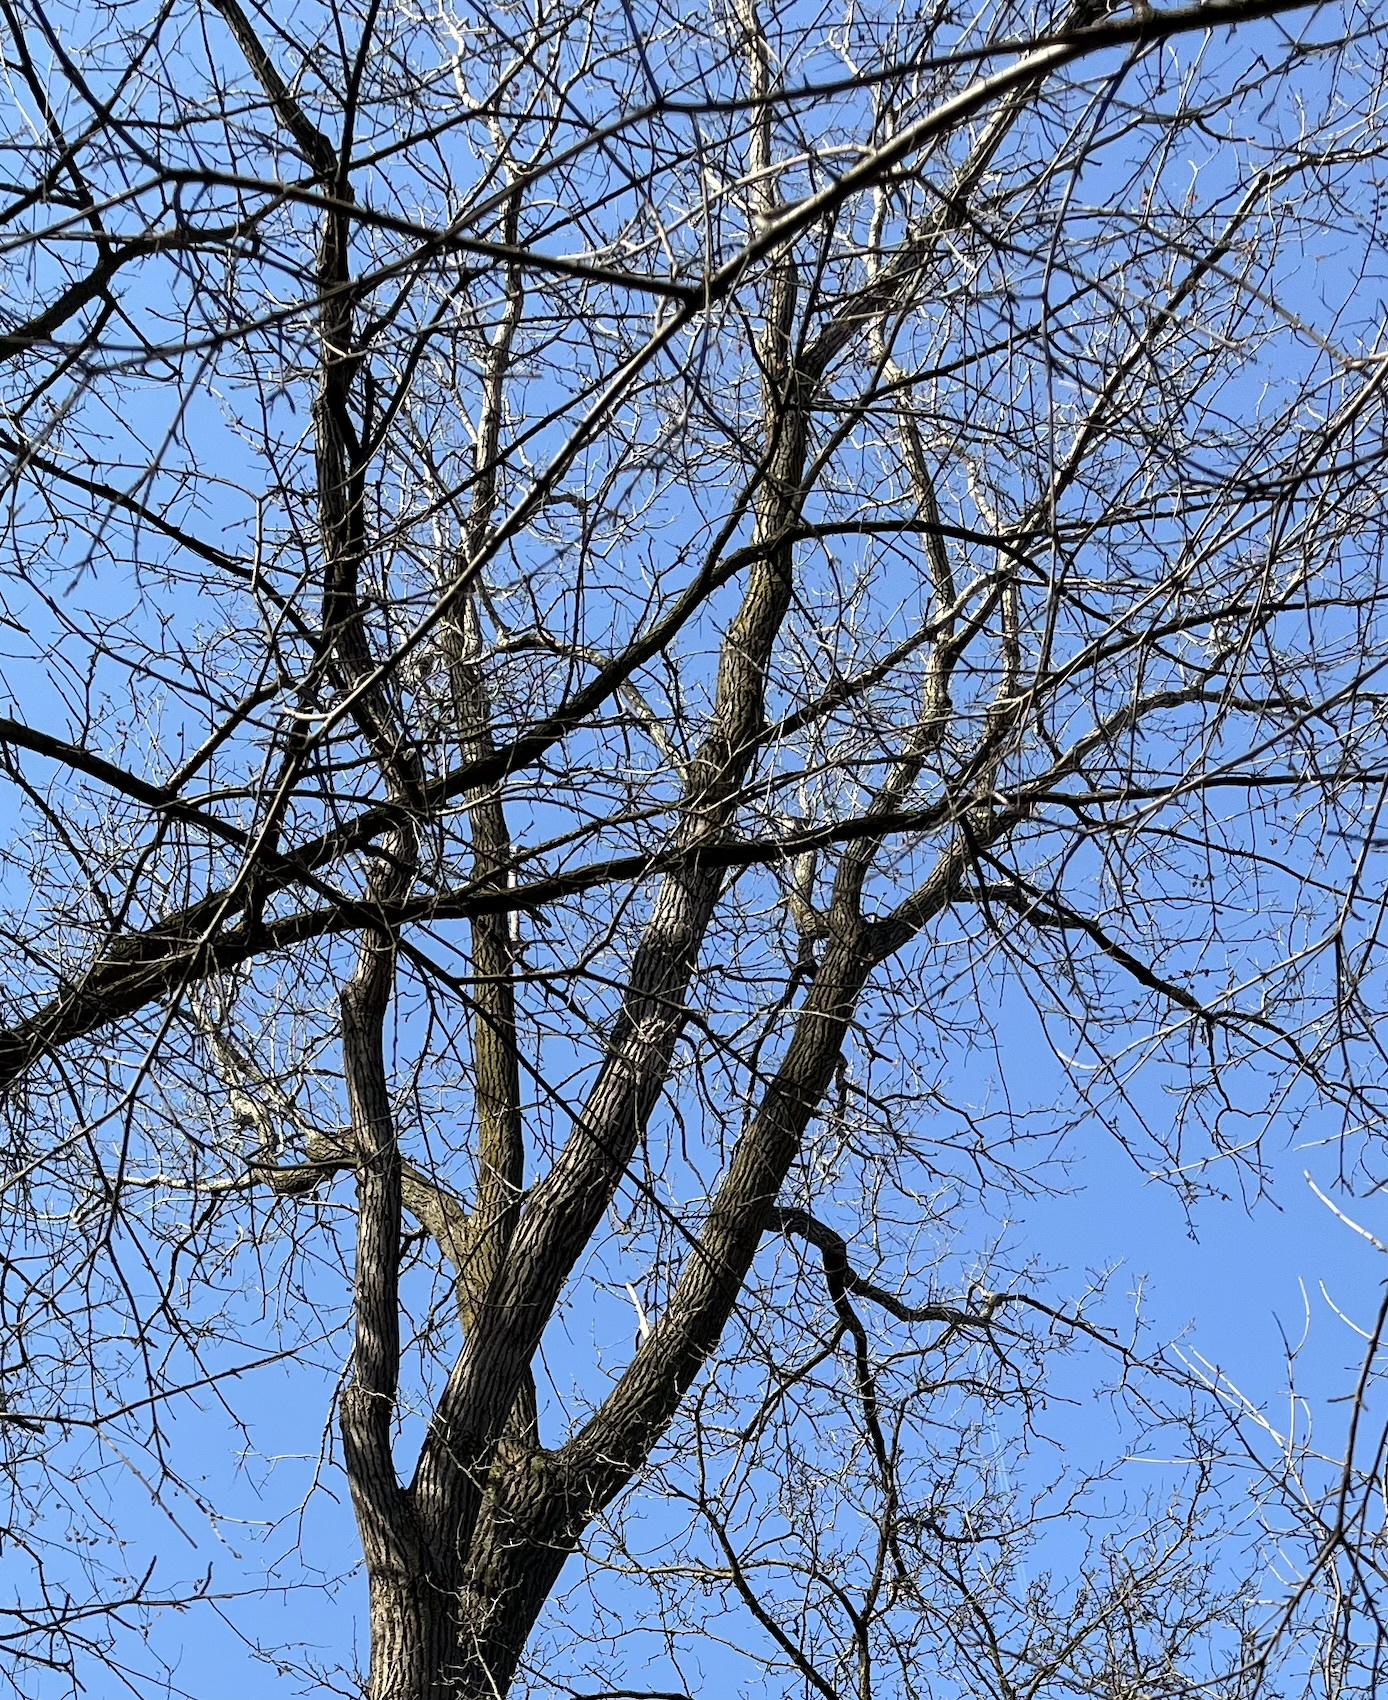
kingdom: Plantae
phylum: Tracheophyta
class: Magnoliopsida
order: Malpighiales
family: Salicaceae
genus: Populus
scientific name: Populus deltoides
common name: Eastern cottonwood
